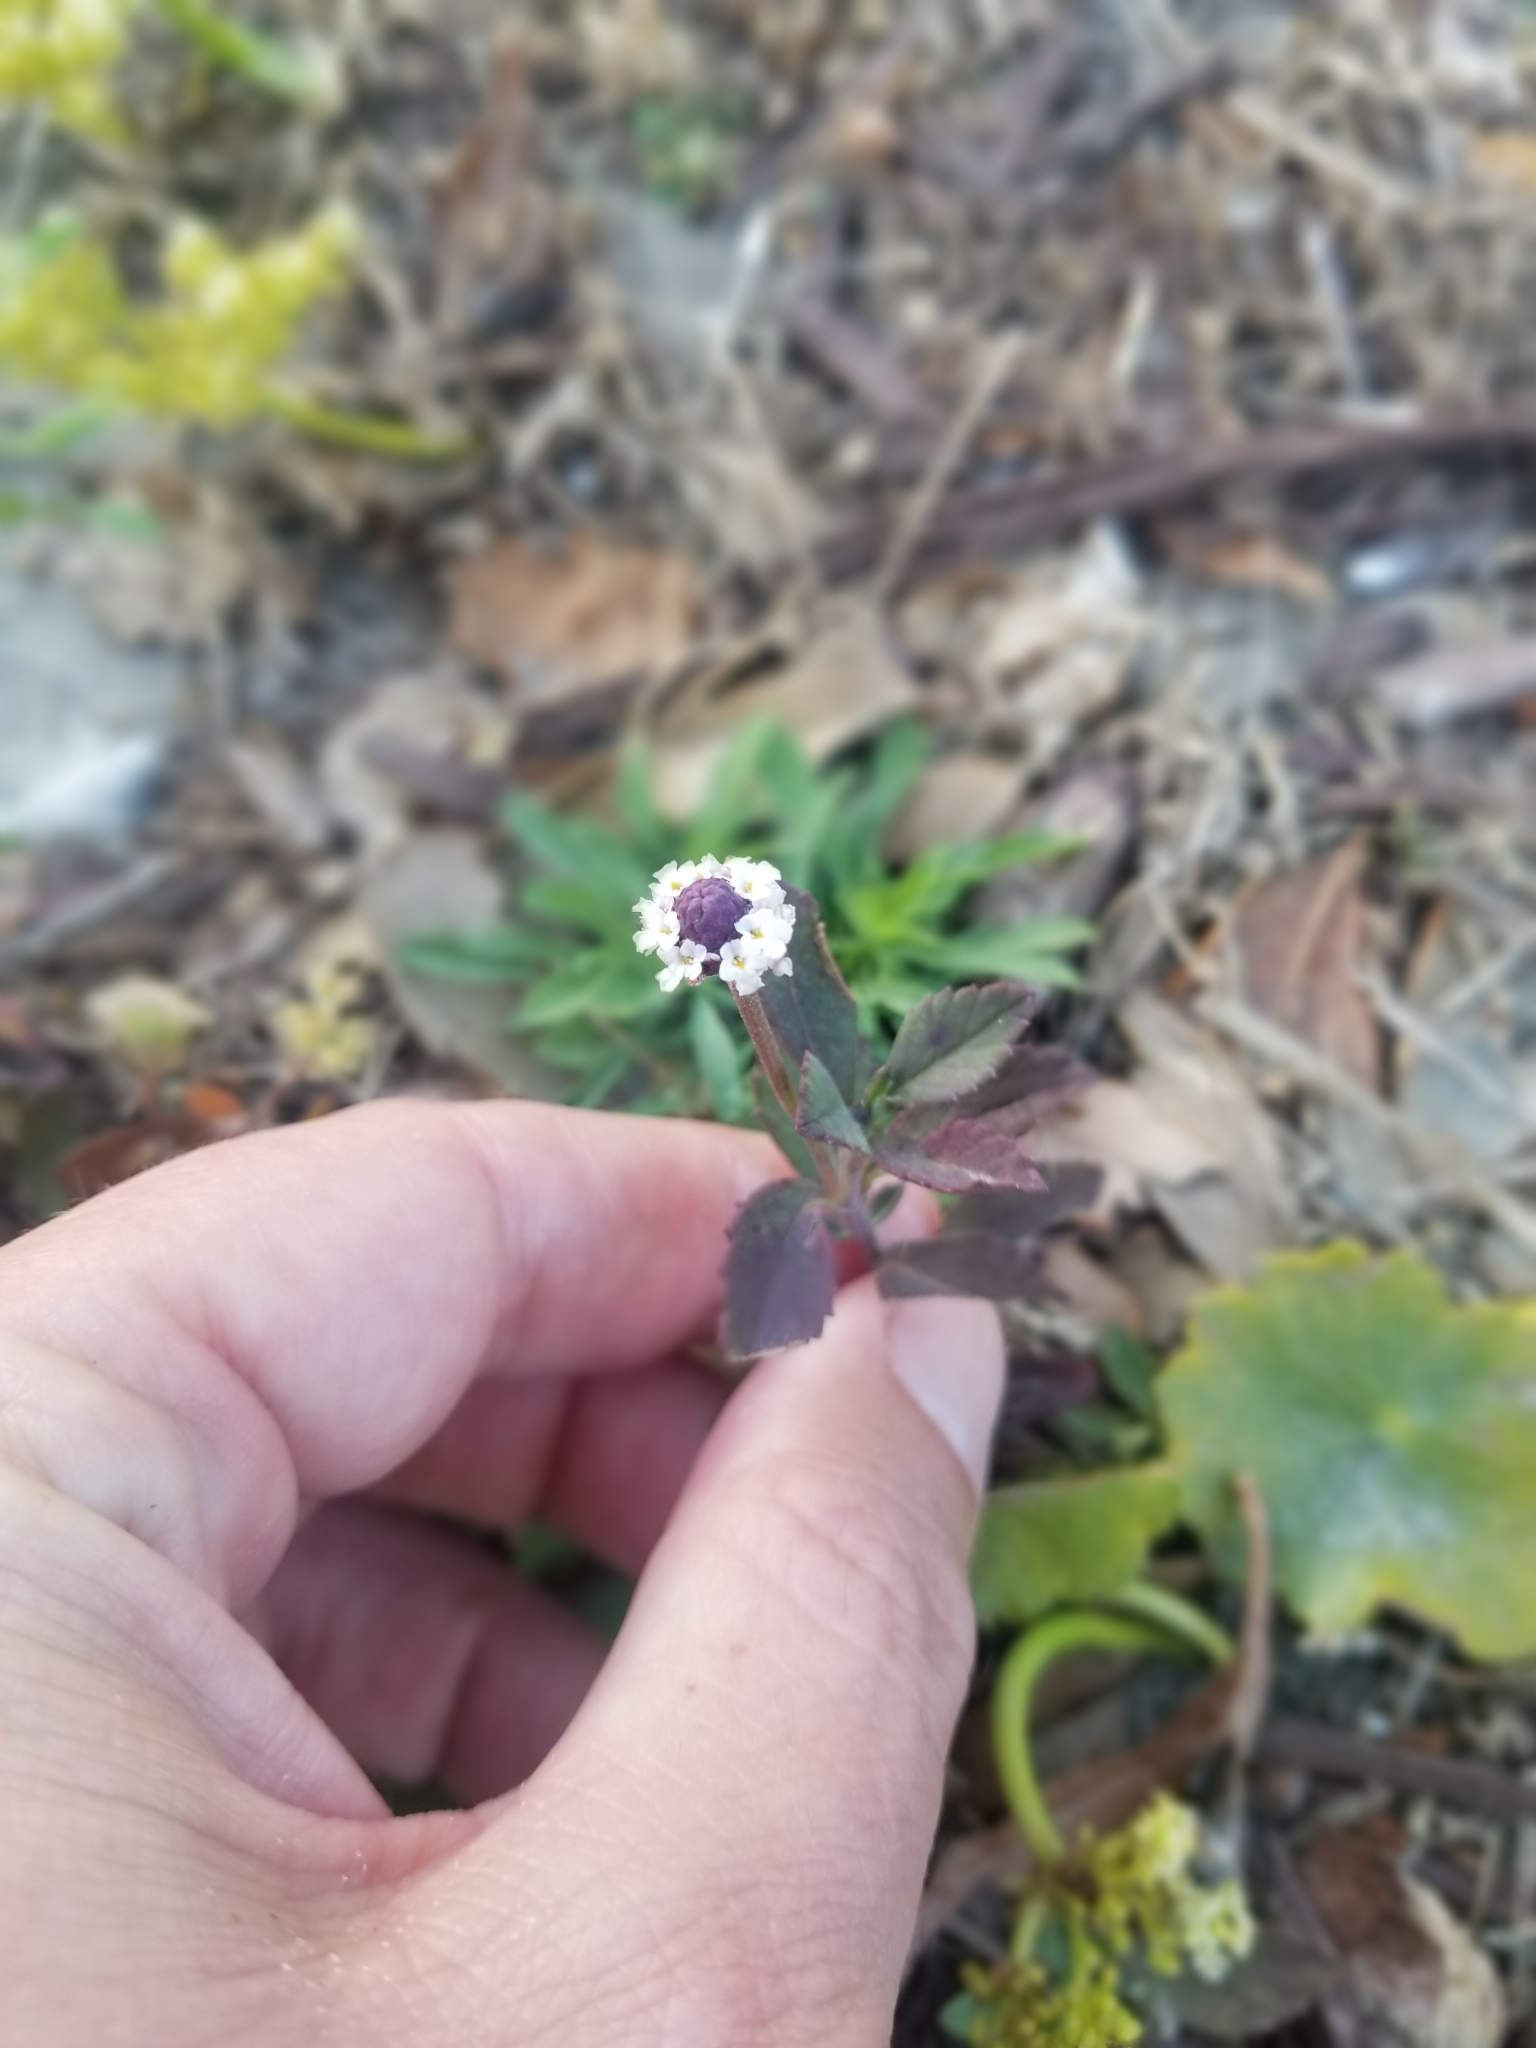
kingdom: Plantae
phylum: Tracheophyta
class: Magnoliopsida
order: Lamiales
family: Verbenaceae
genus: Phyla
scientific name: Phyla nodiflora
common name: Frogfruit
